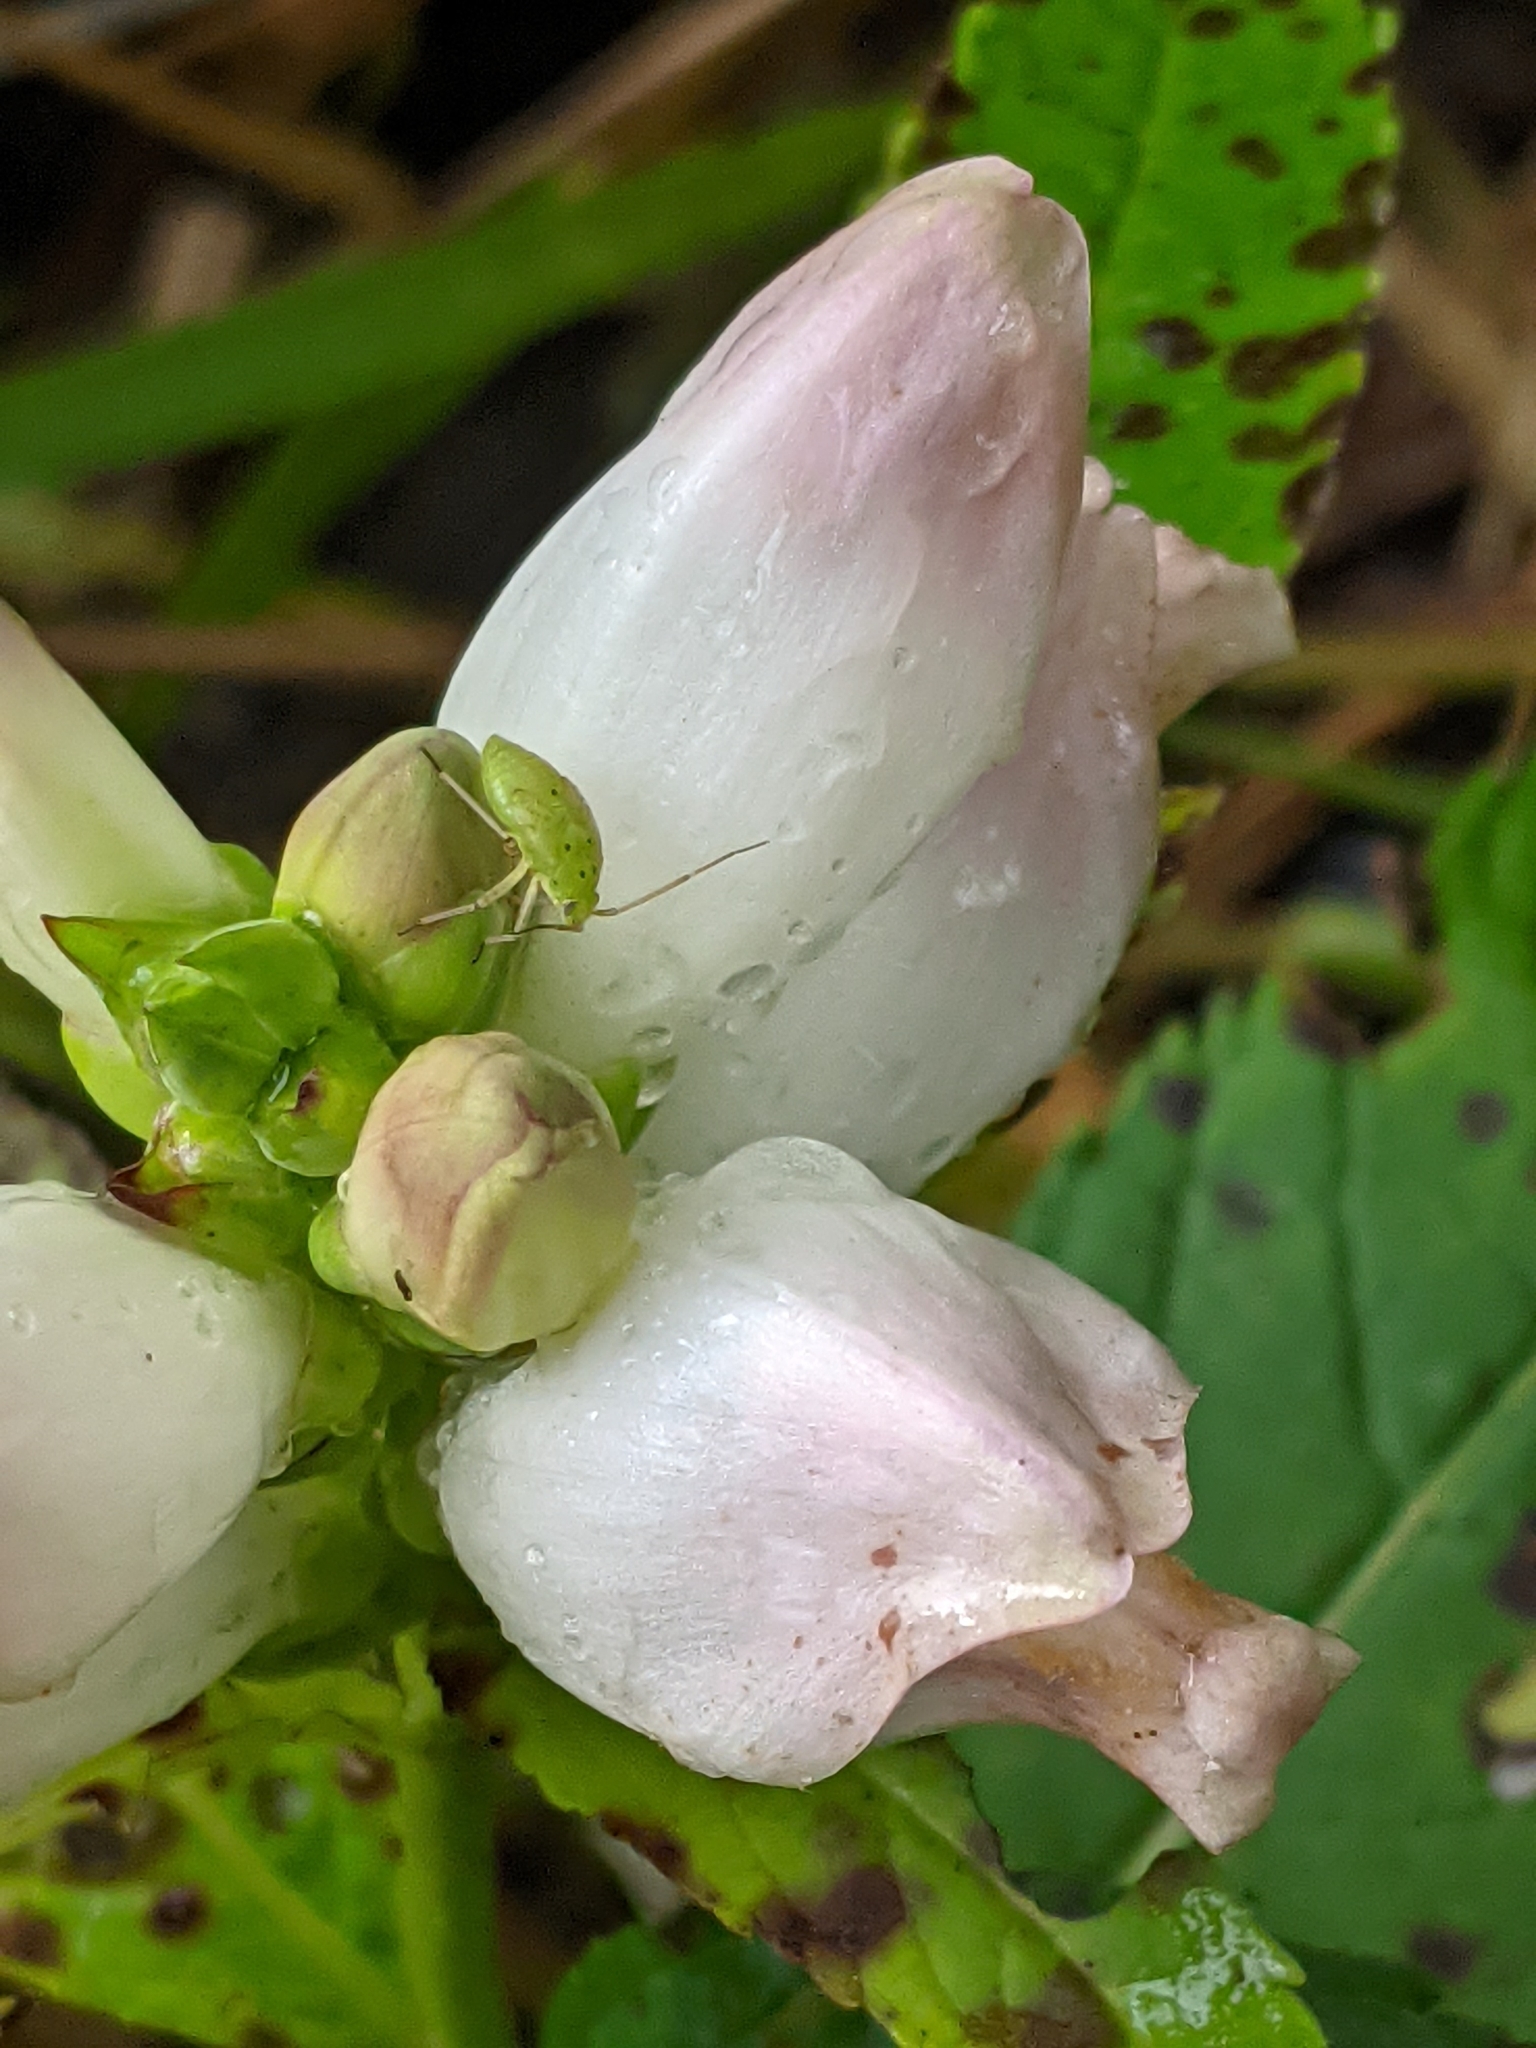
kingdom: Plantae
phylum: Tracheophyta
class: Magnoliopsida
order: Lamiales
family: Plantaginaceae
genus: Chelone
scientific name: Chelone glabra
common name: Snakehead
